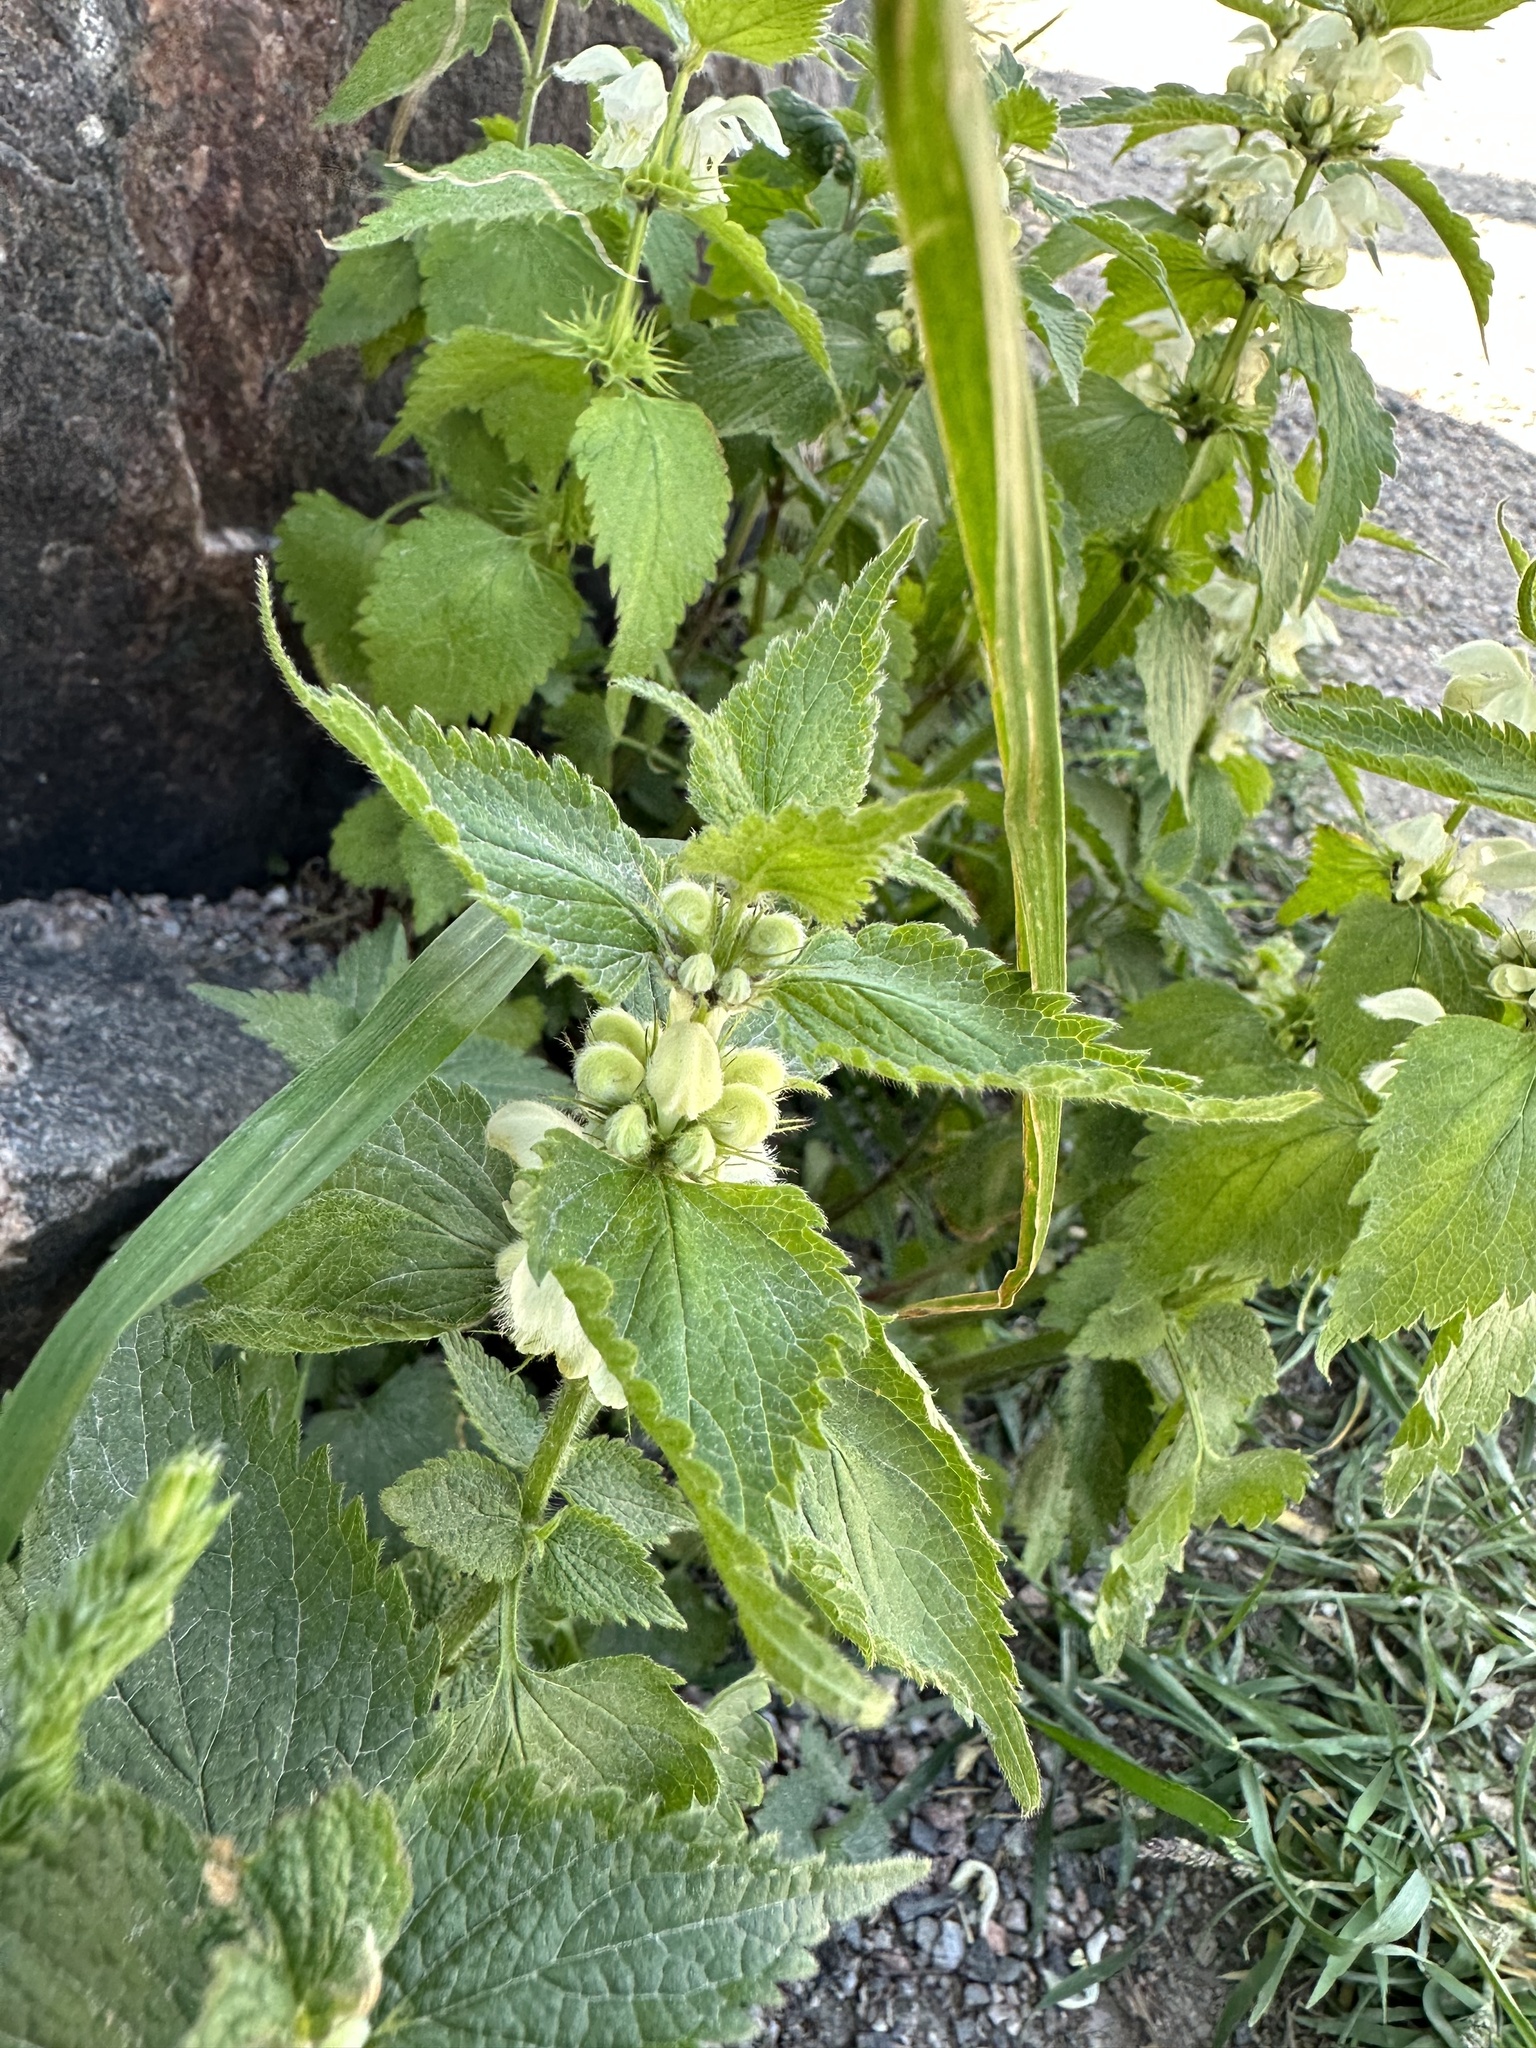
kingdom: Plantae
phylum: Tracheophyta
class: Magnoliopsida
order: Lamiales
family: Lamiaceae
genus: Lamium
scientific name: Lamium album
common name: White dead-nettle
